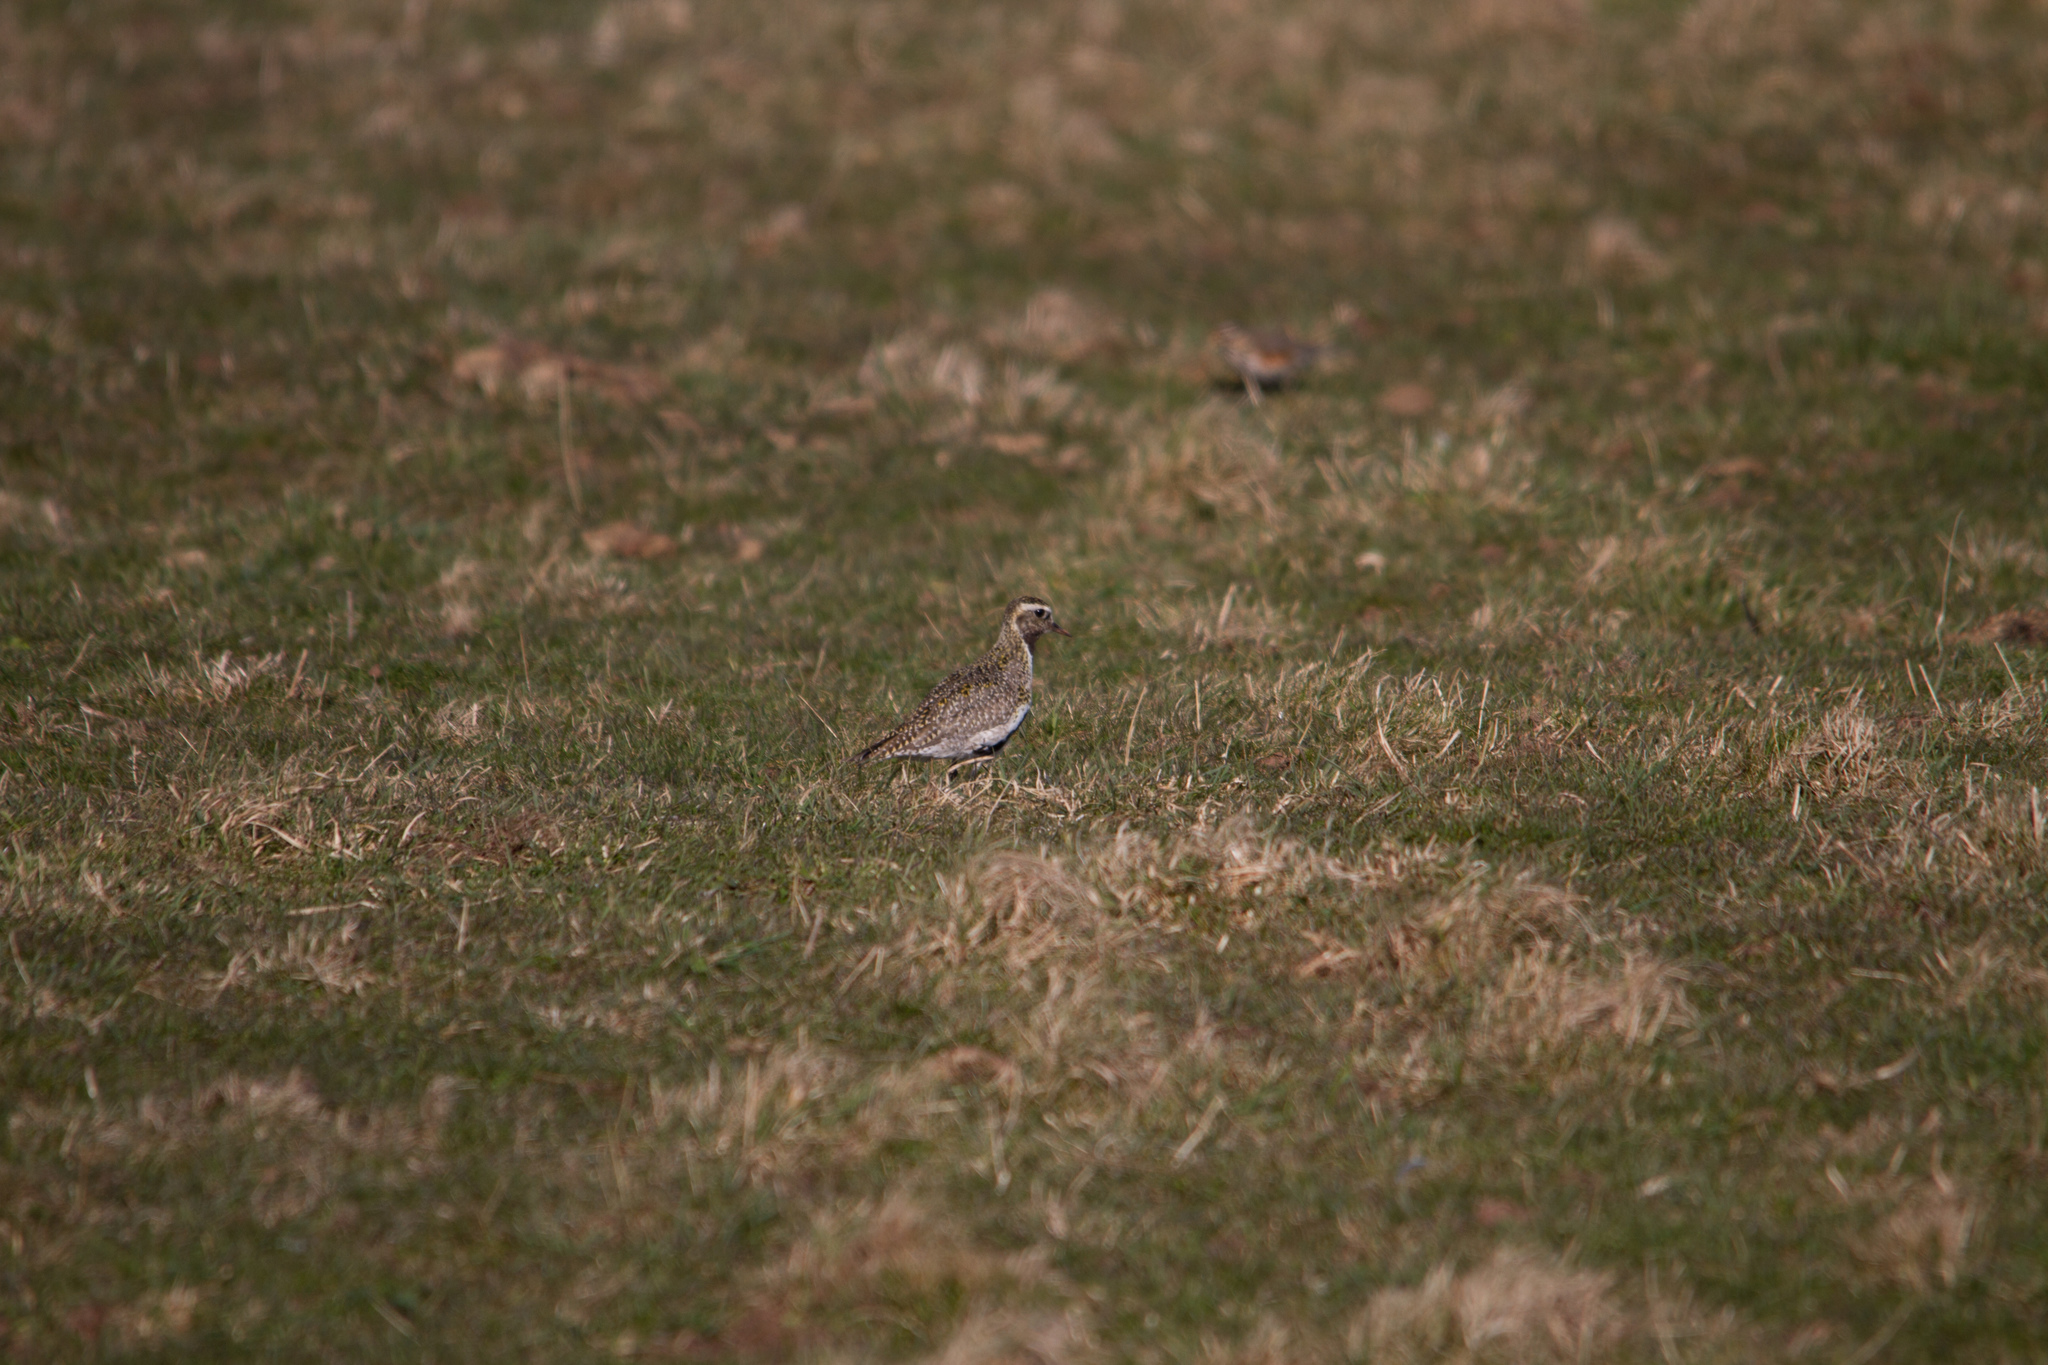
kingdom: Animalia
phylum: Chordata
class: Aves
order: Charadriiformes
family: Charadriidae
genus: Pluvialis
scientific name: Pluvialis apricaria
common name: European golden plover
